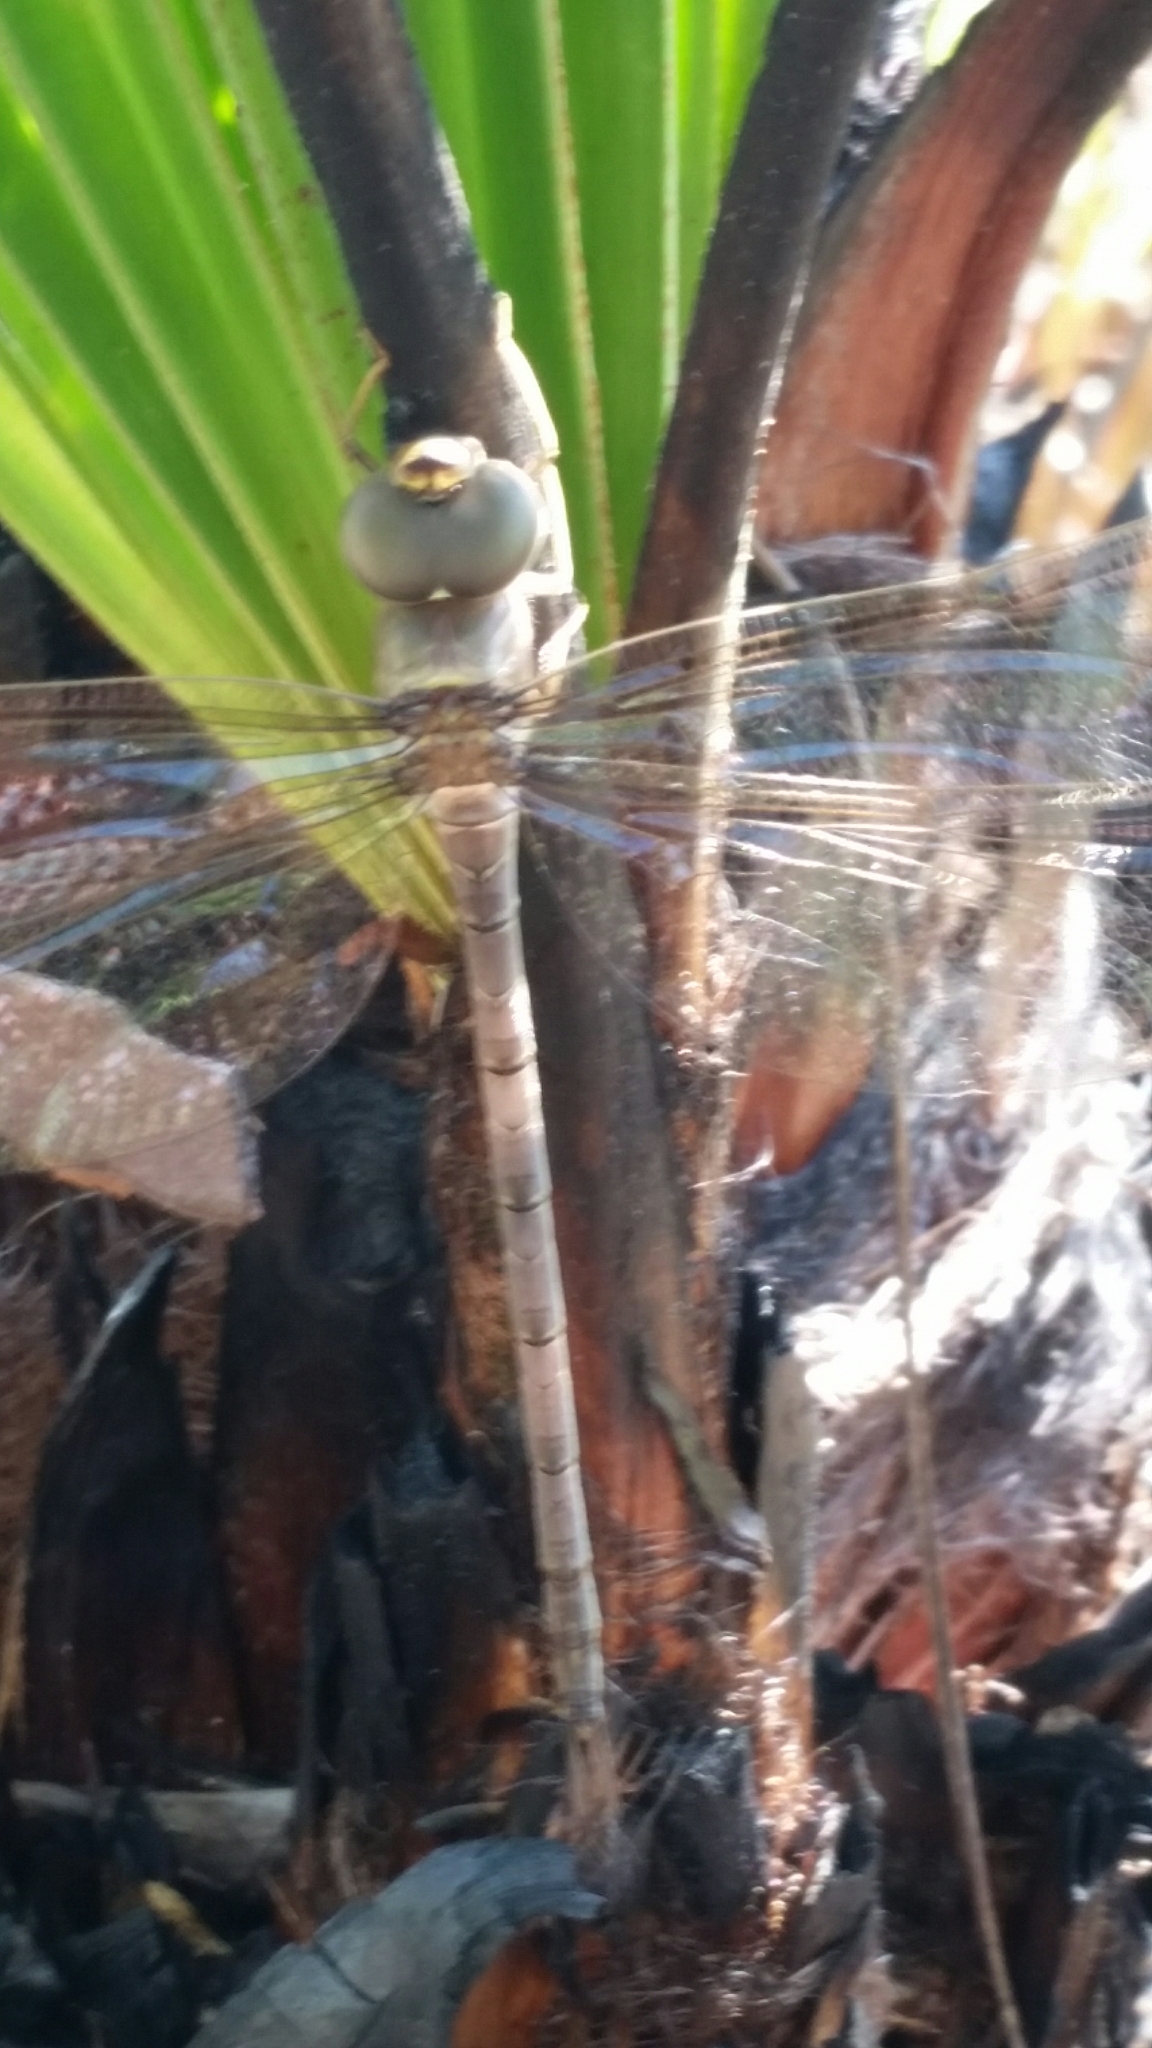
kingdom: Animalia
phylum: Arthropoda
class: Insecta
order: Odonata
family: Aeshnidae
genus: Gynacantha
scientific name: Gynacantha nervosa
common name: Twilight darner
